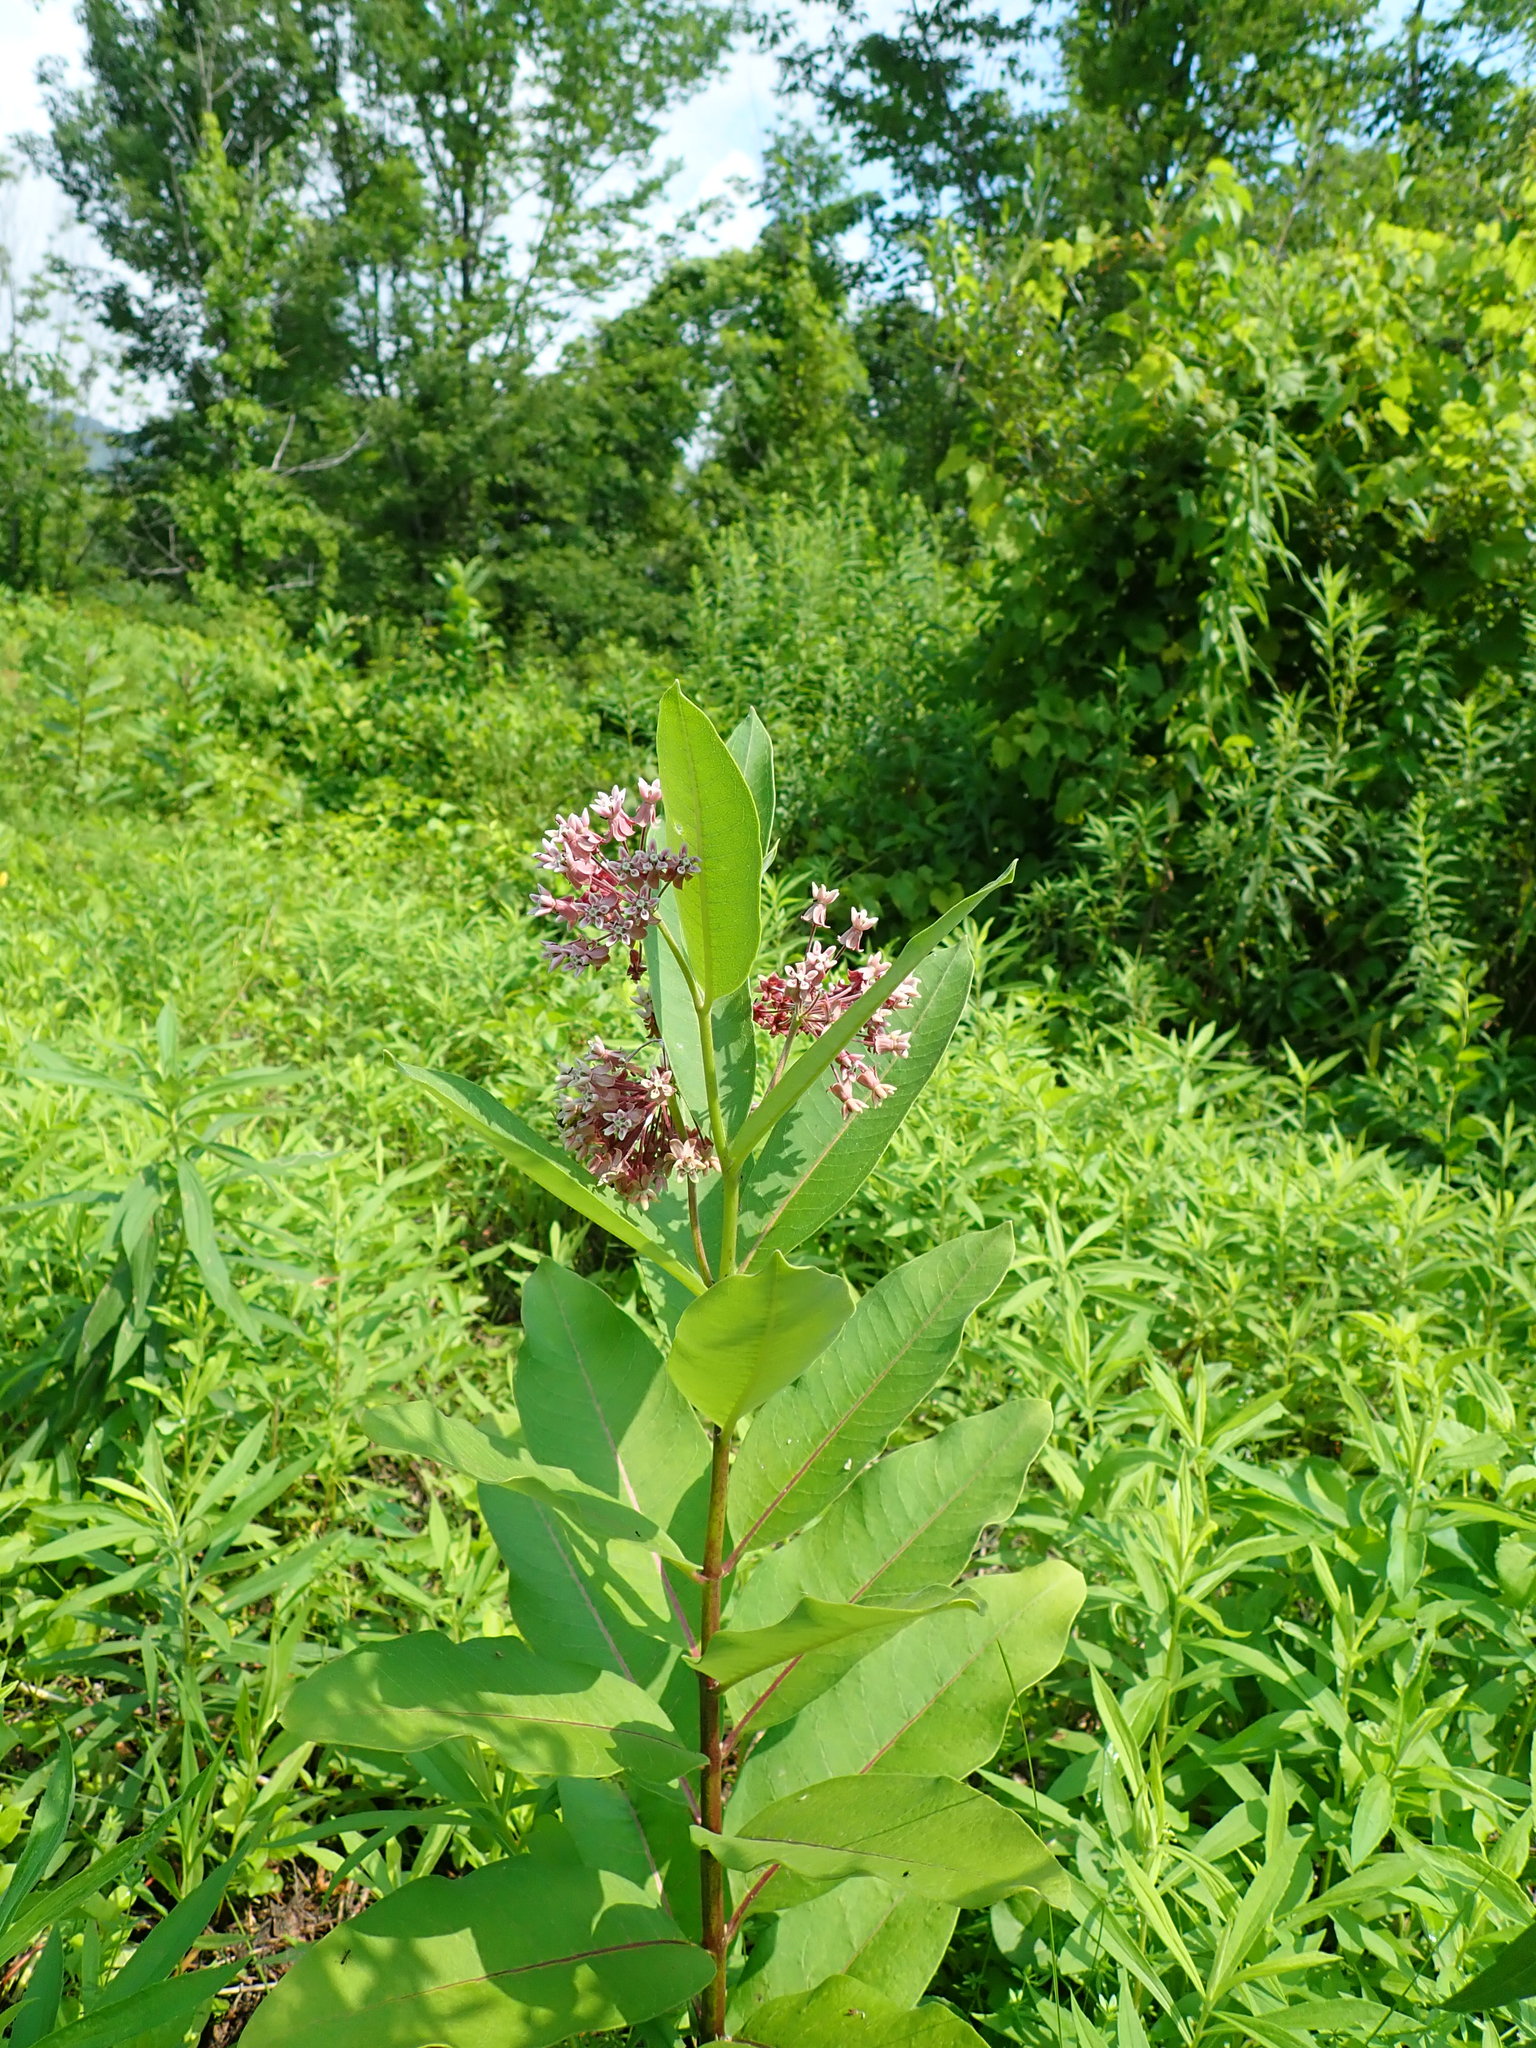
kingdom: Plantae
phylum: Tracheophyta
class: Magnoliopsida
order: Gentianales
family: Apocynaceae
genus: Asclepias
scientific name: Asclepias syriaca
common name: Common milkweed
